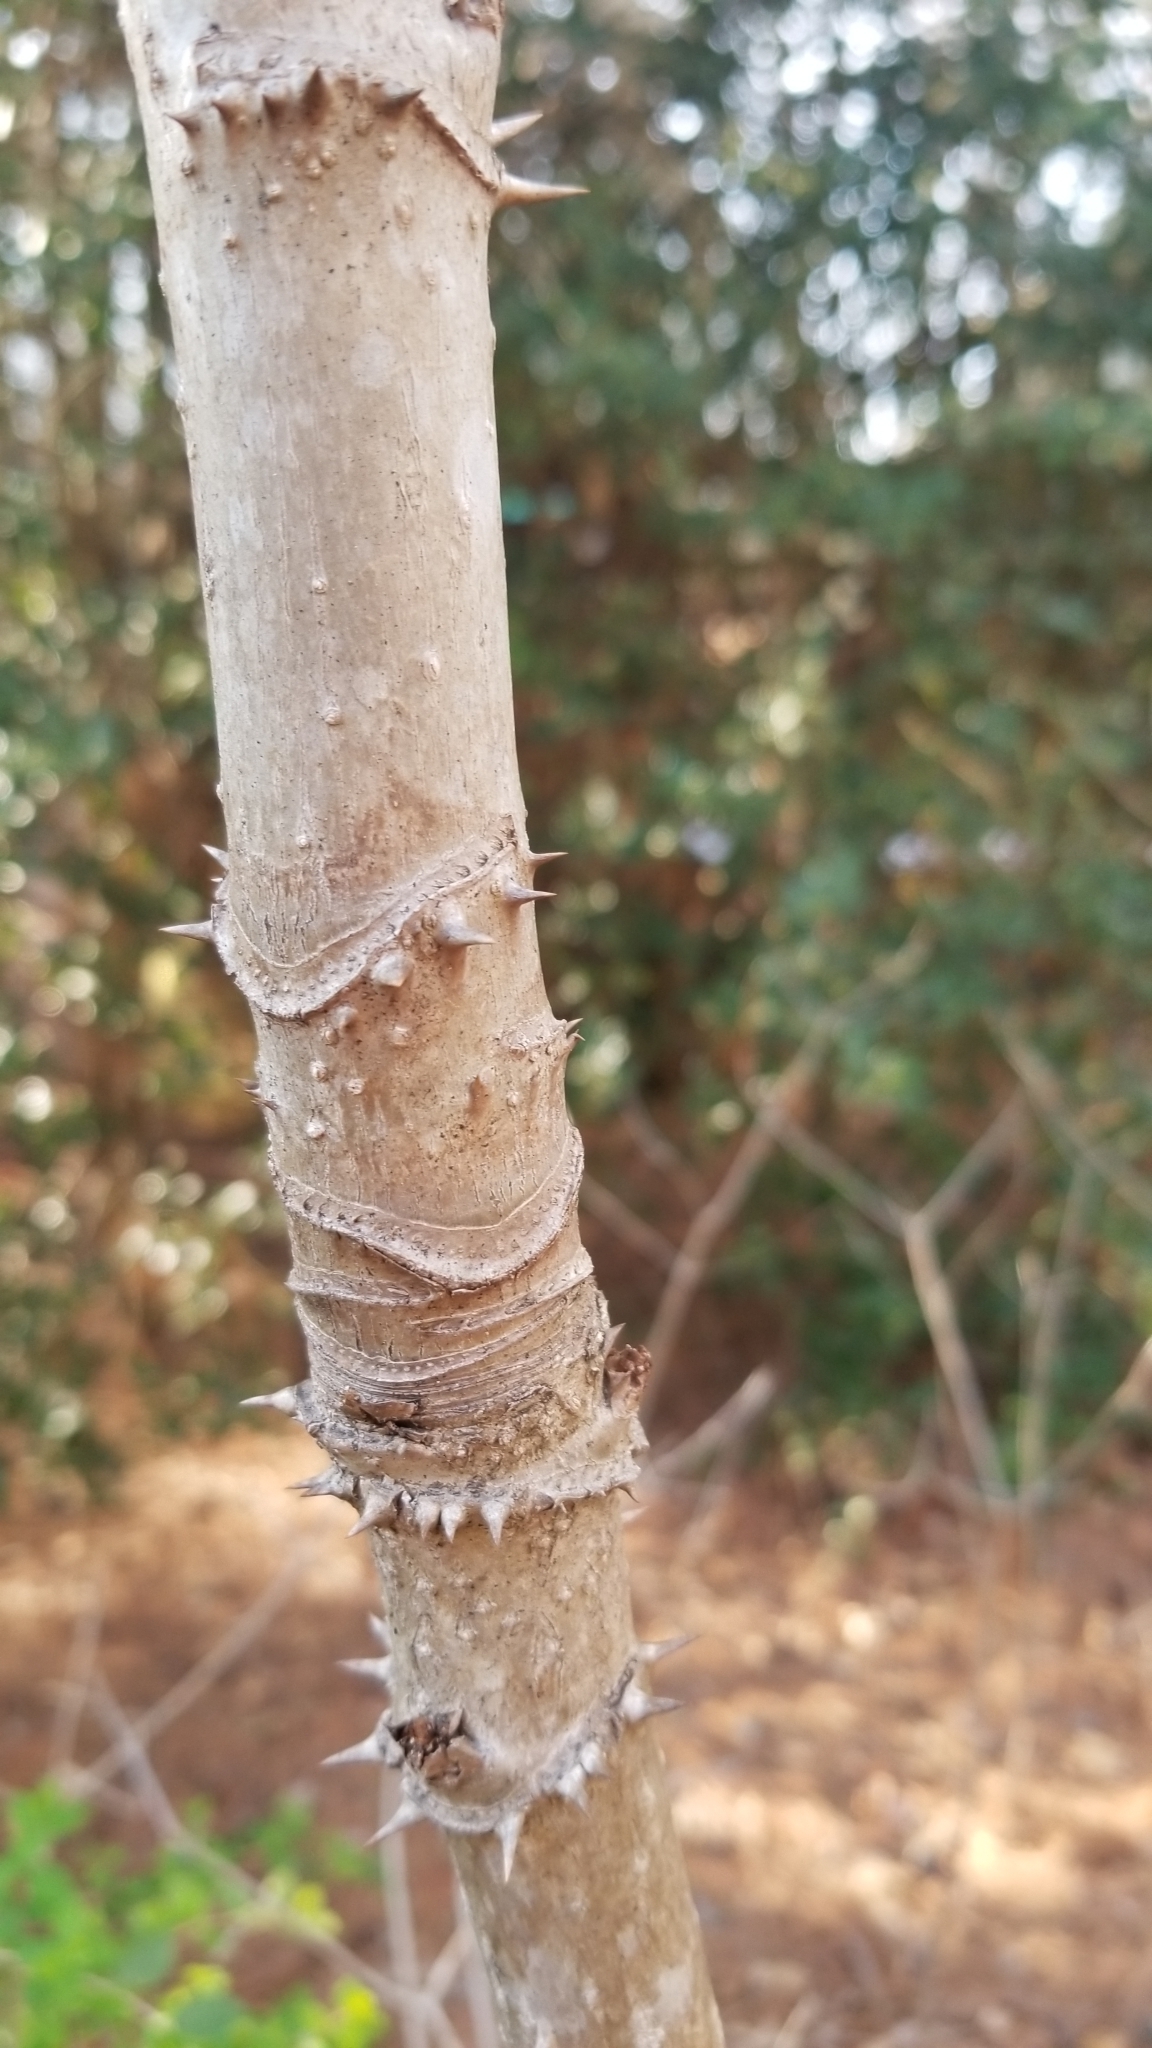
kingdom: Plantae
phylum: Tracheophyta
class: Magnoliopsida
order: Apiales
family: Araliaceae
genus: Aralia
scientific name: Aralia spinosa
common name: Hercules'-club
